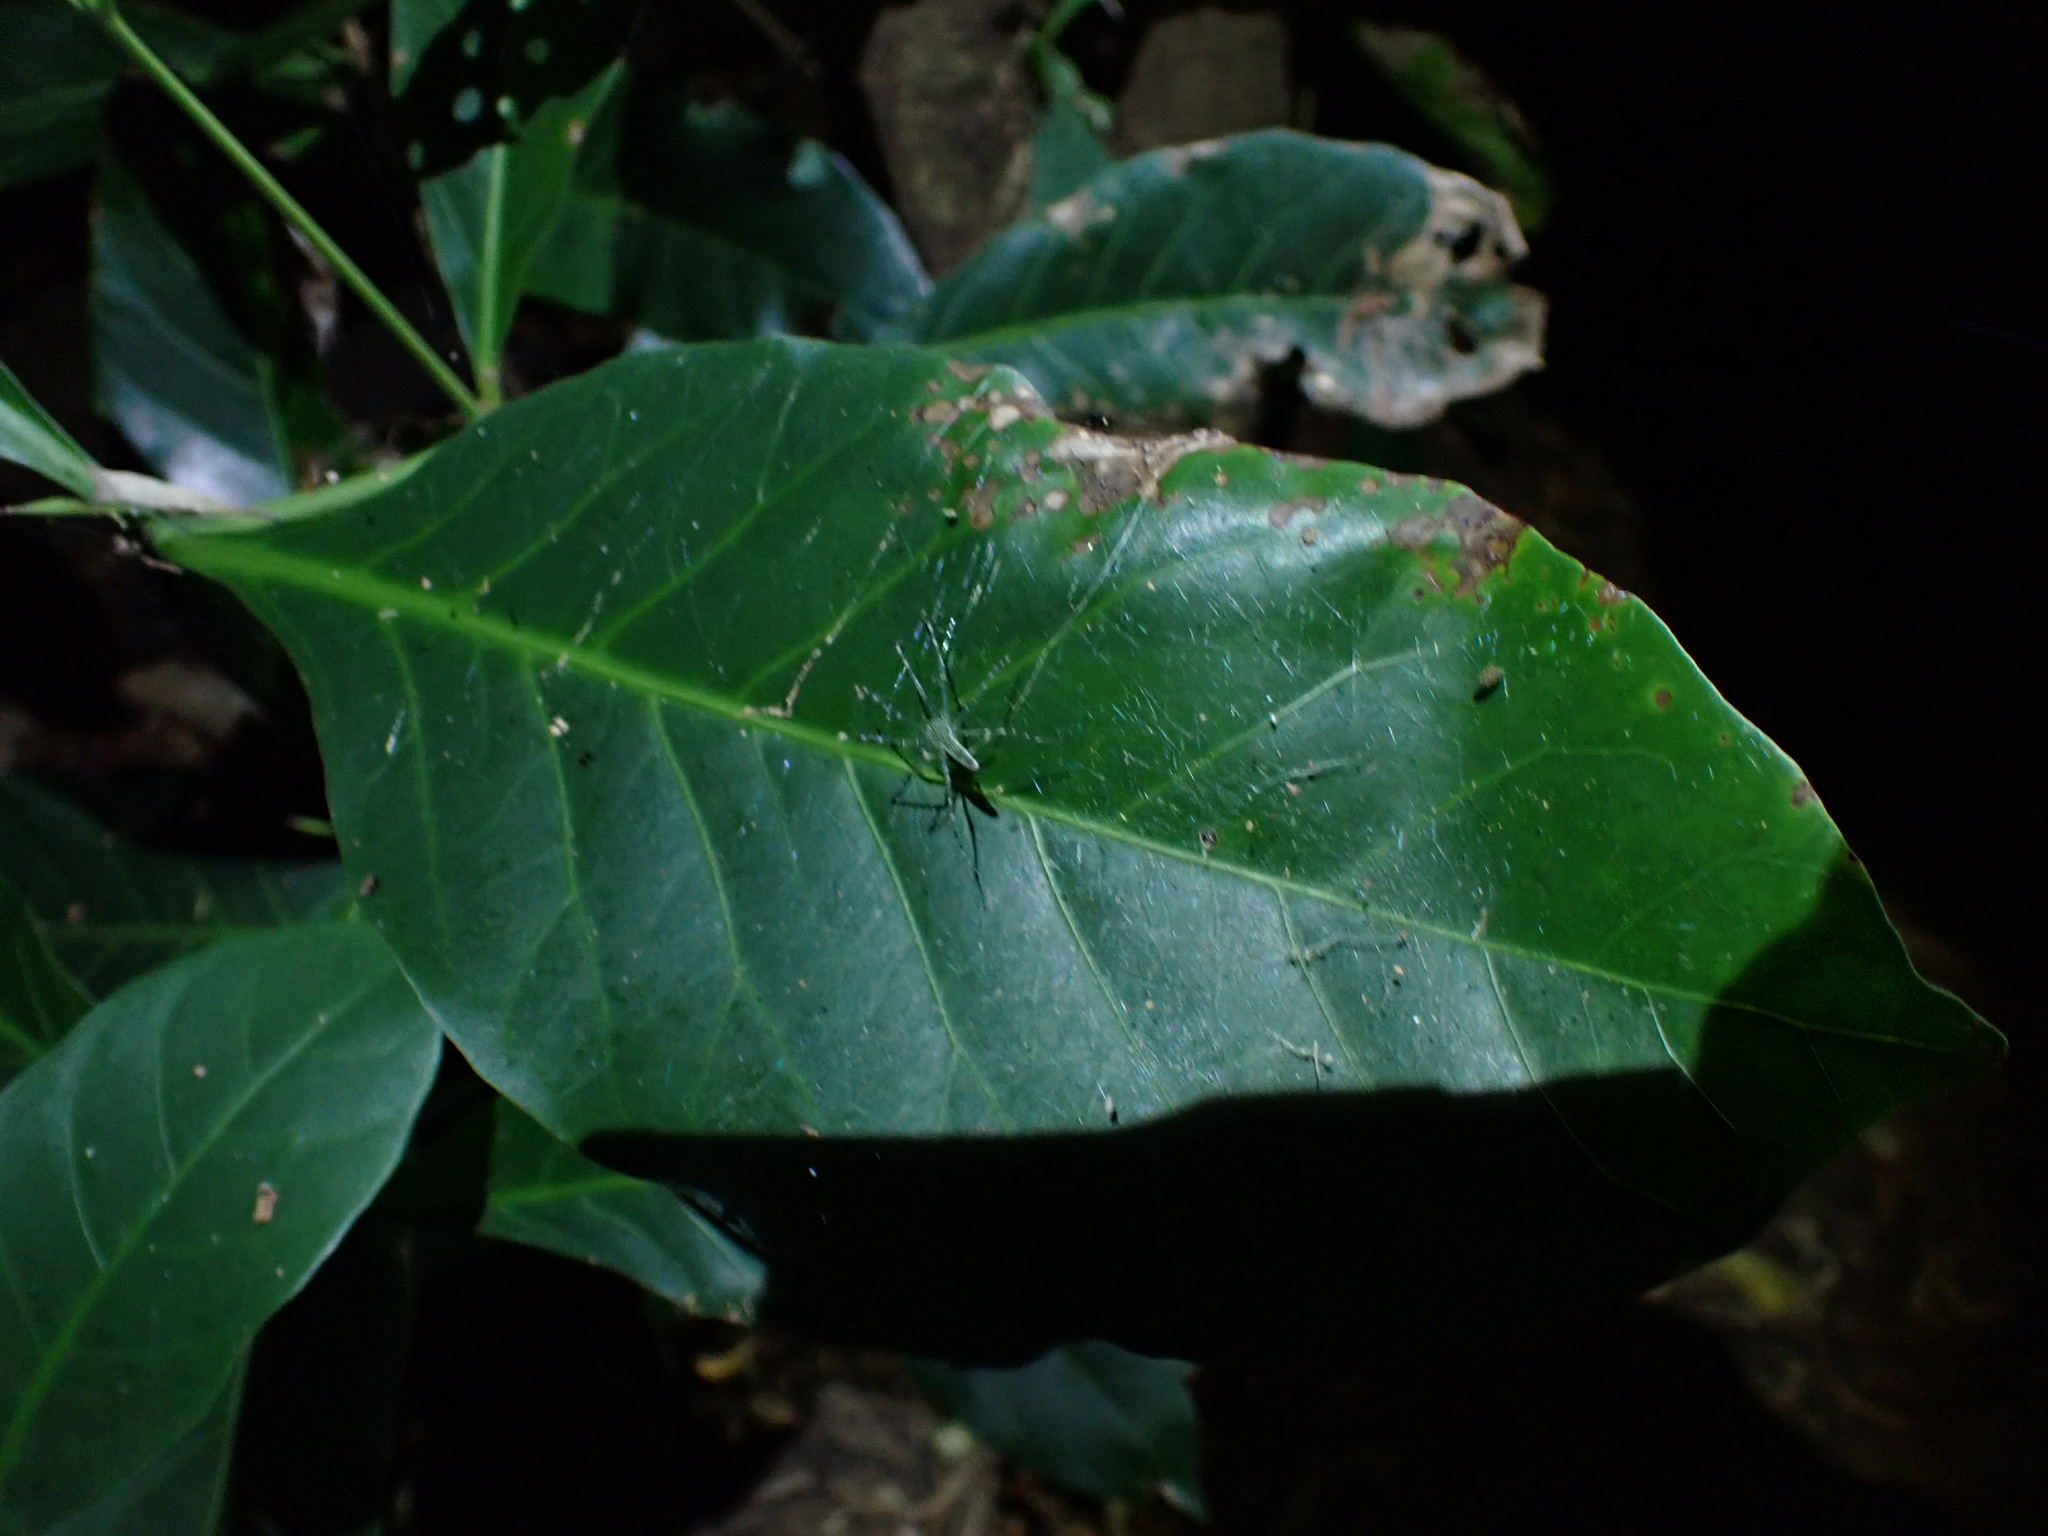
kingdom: Animalia
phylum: Arthropoda
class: Arachnida
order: Araneae
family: Pisauridae
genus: Hygropoda
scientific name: Hygropoda lineata
